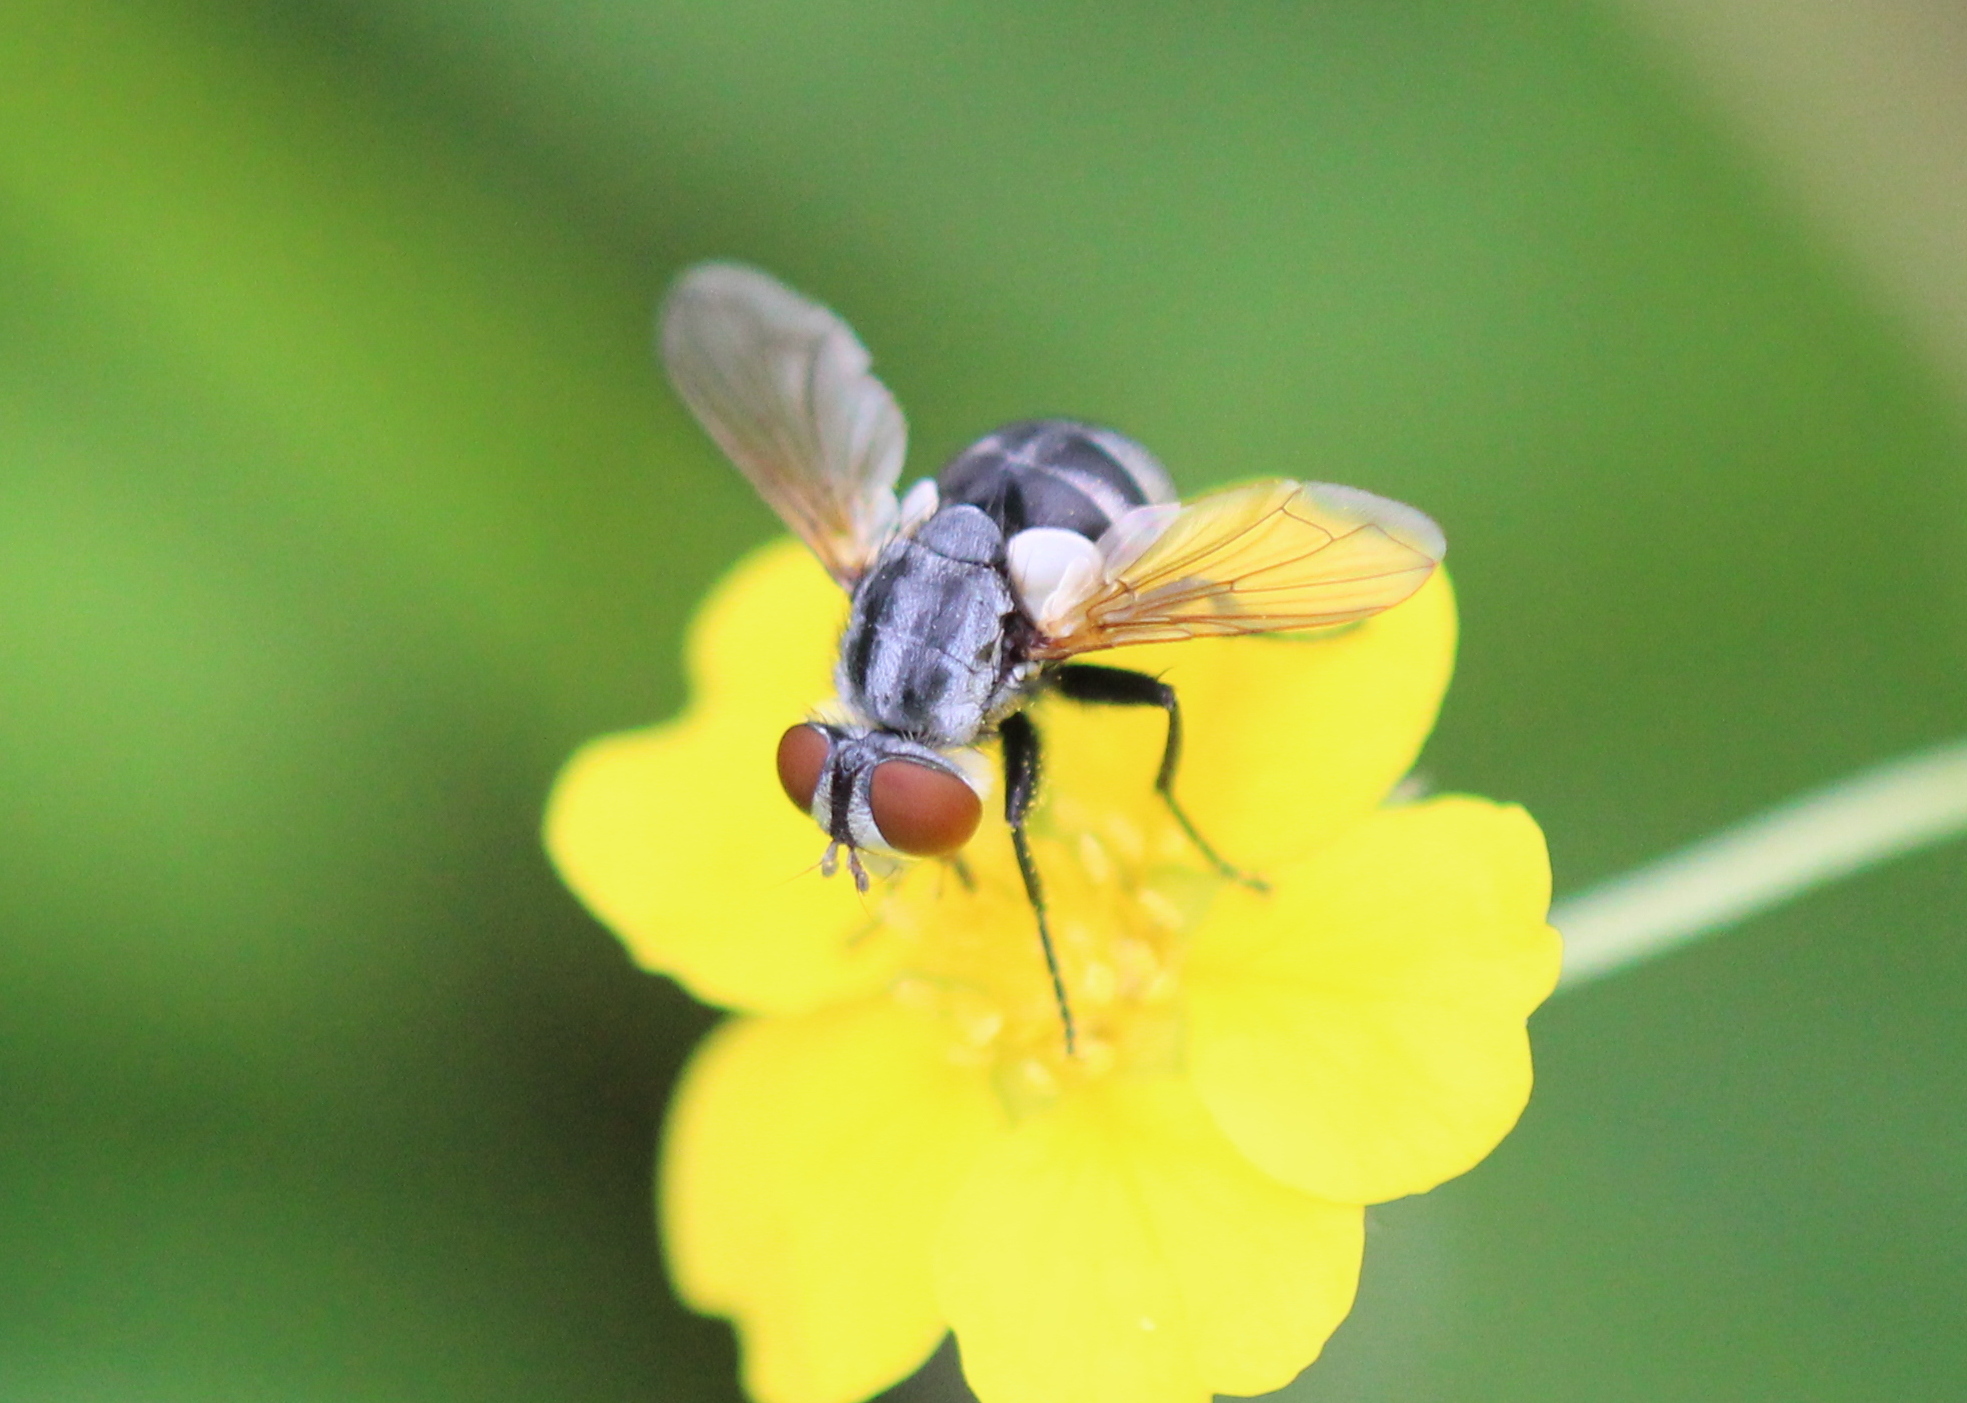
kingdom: Animalia
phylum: Arthropoda
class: Insecta
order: Diptera
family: Tachinidae
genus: Gymnoclytia
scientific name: Gymnoclytia occidua
